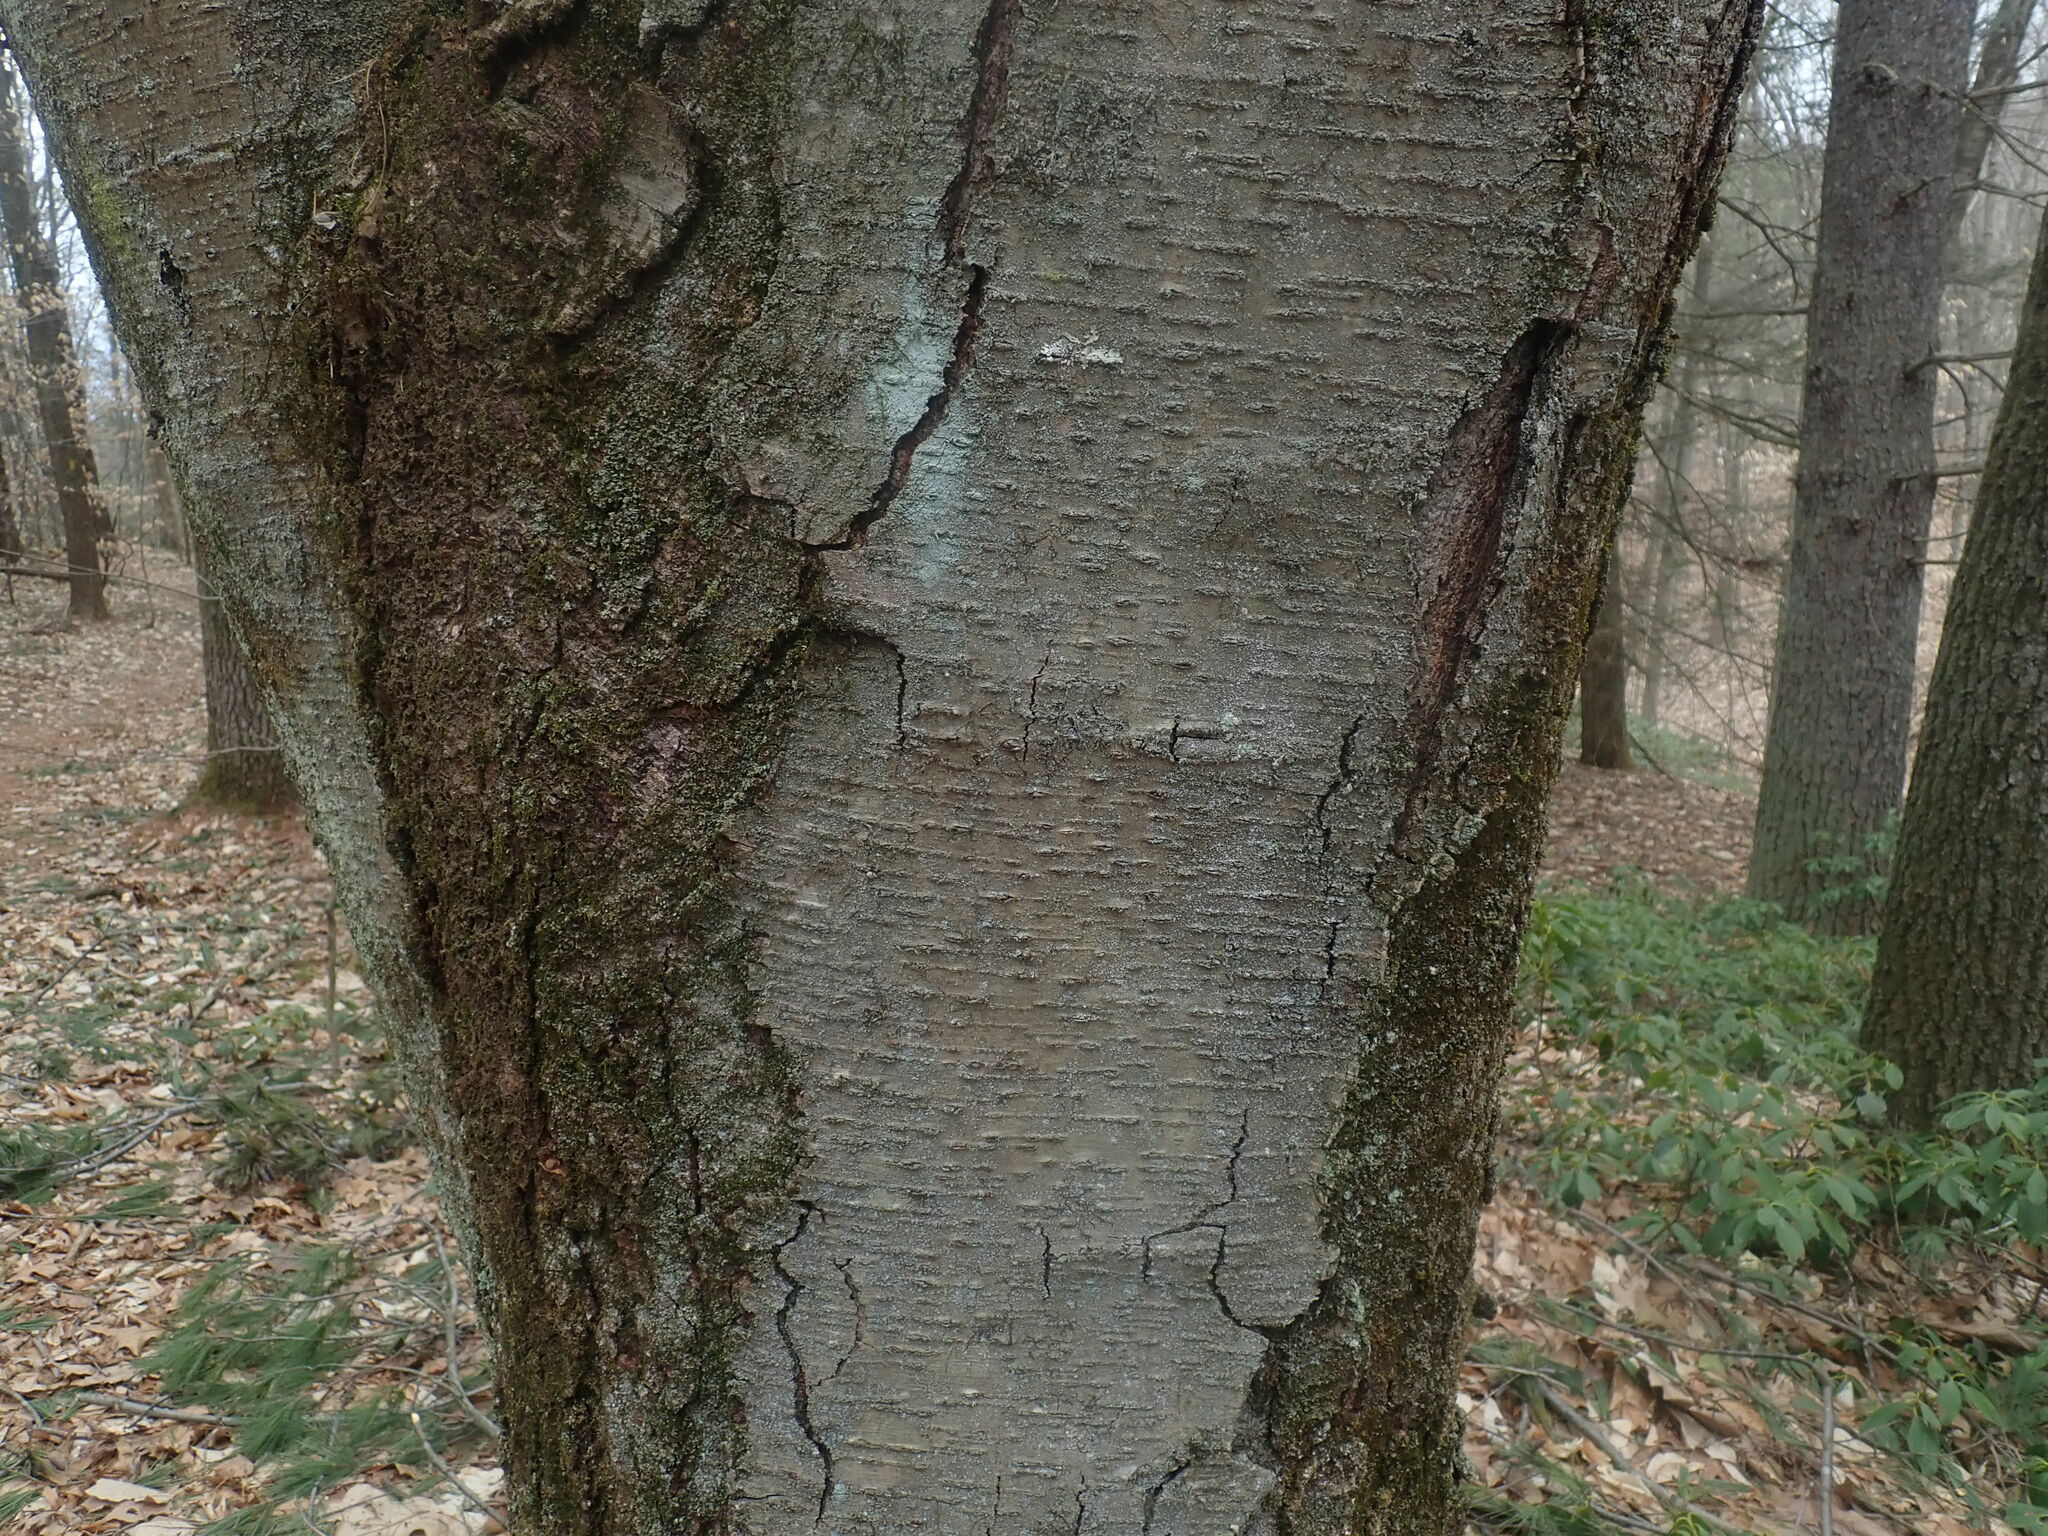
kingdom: Plantae
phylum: Tracheophyta
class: Magnoliopsida
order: Fagales
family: Betulaceae
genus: Betula
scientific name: Betula lenta
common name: Black birch
